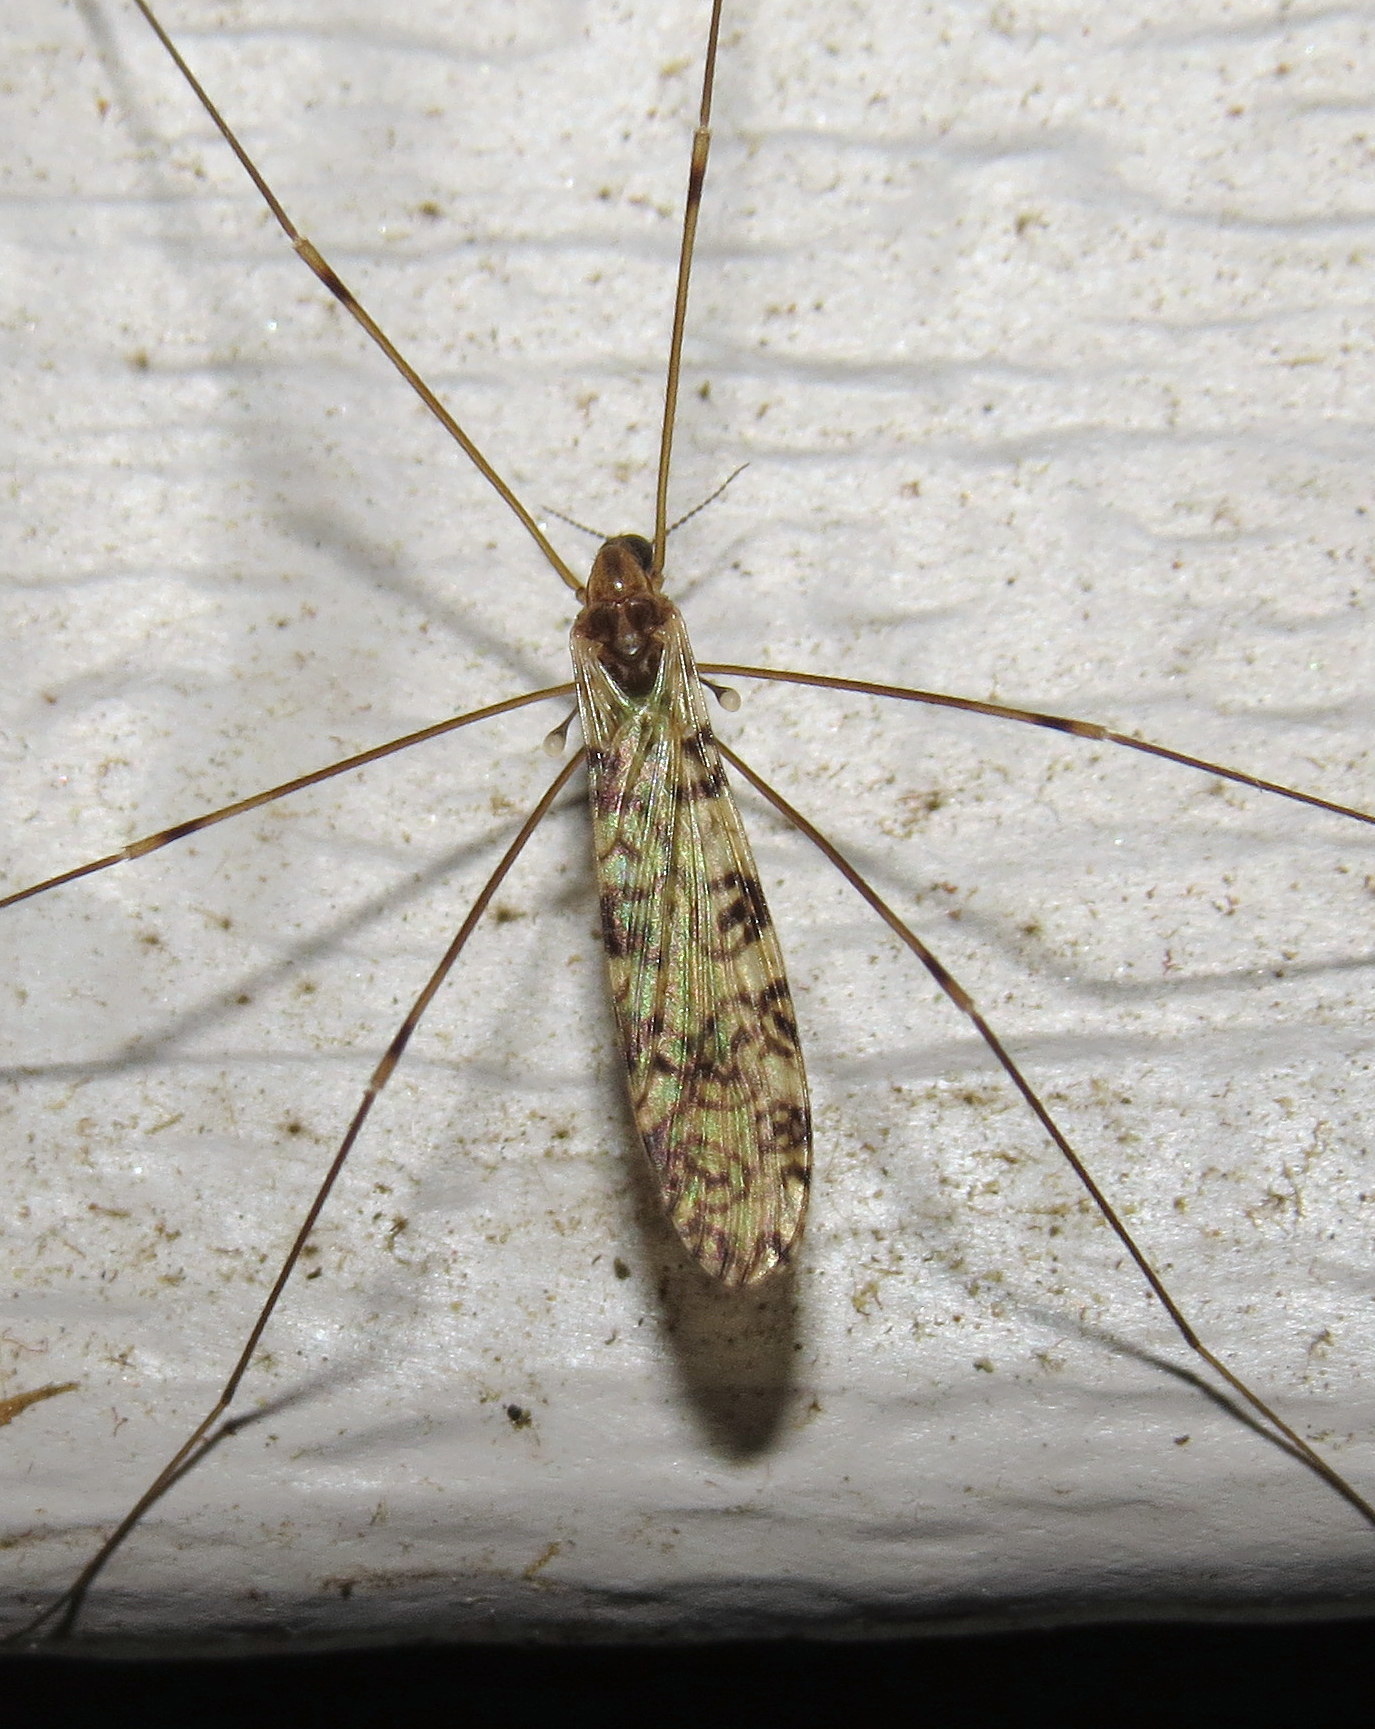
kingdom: Animalia
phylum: Arthropoda
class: Insecta
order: Diptera
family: Limoniidae
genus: Limonia
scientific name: Limonia annulata
